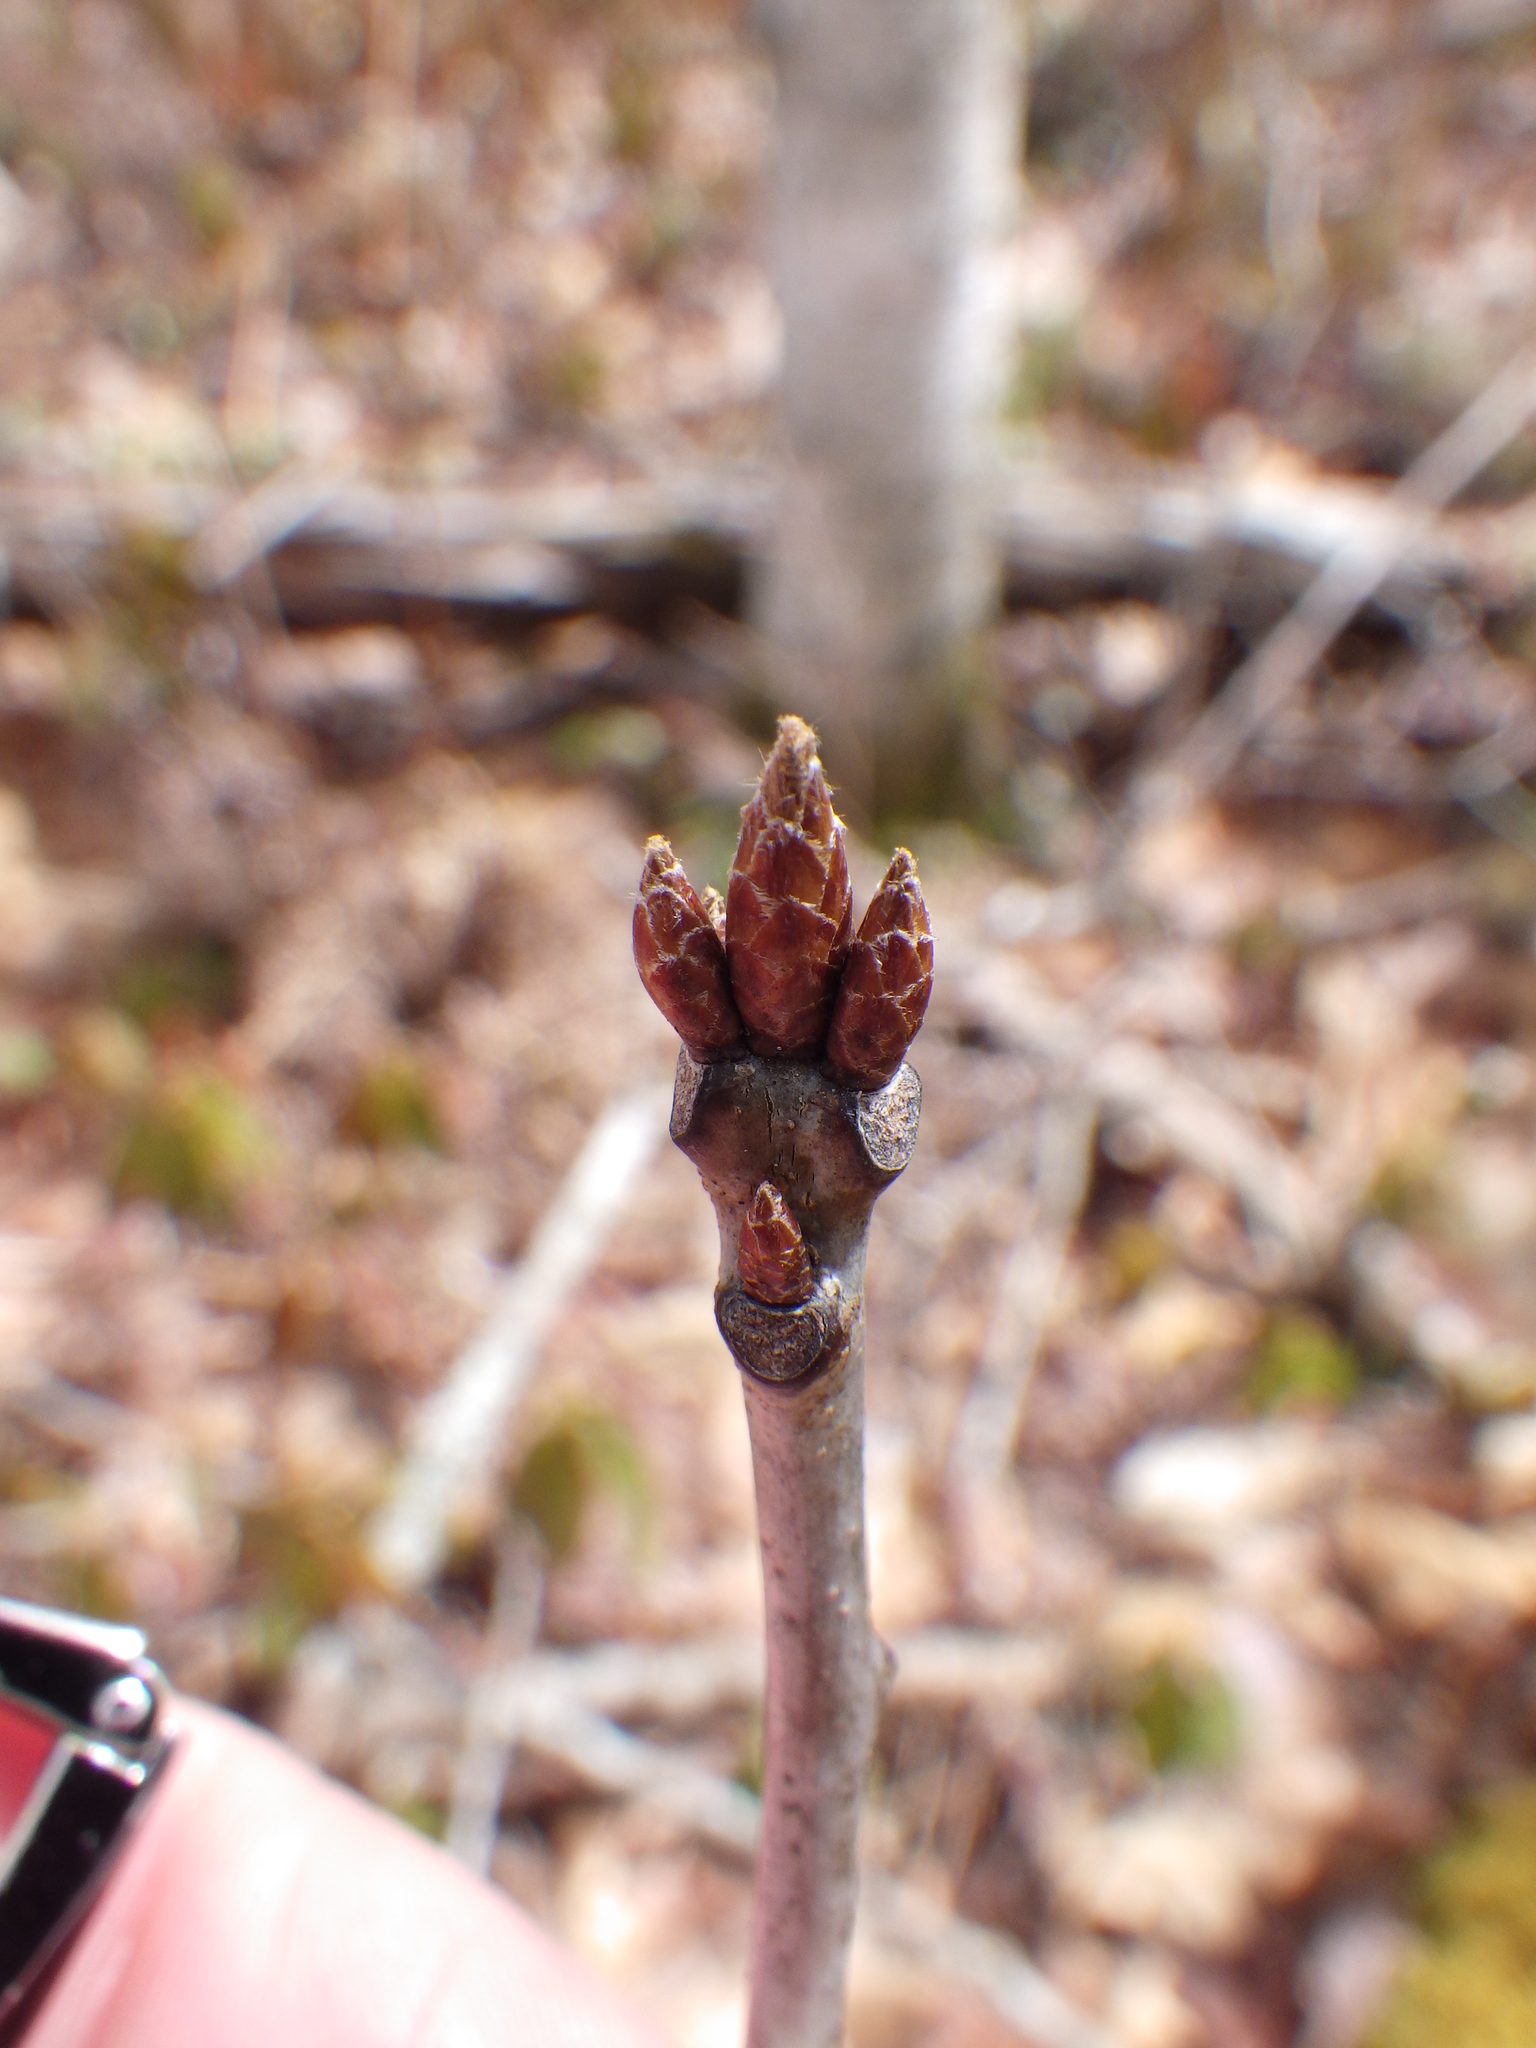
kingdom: Plantae
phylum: Tracheophyta
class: Magnoliopsida
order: Fagales
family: Fagaceae
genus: Quercus
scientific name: Quercus rubra
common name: Red oak
